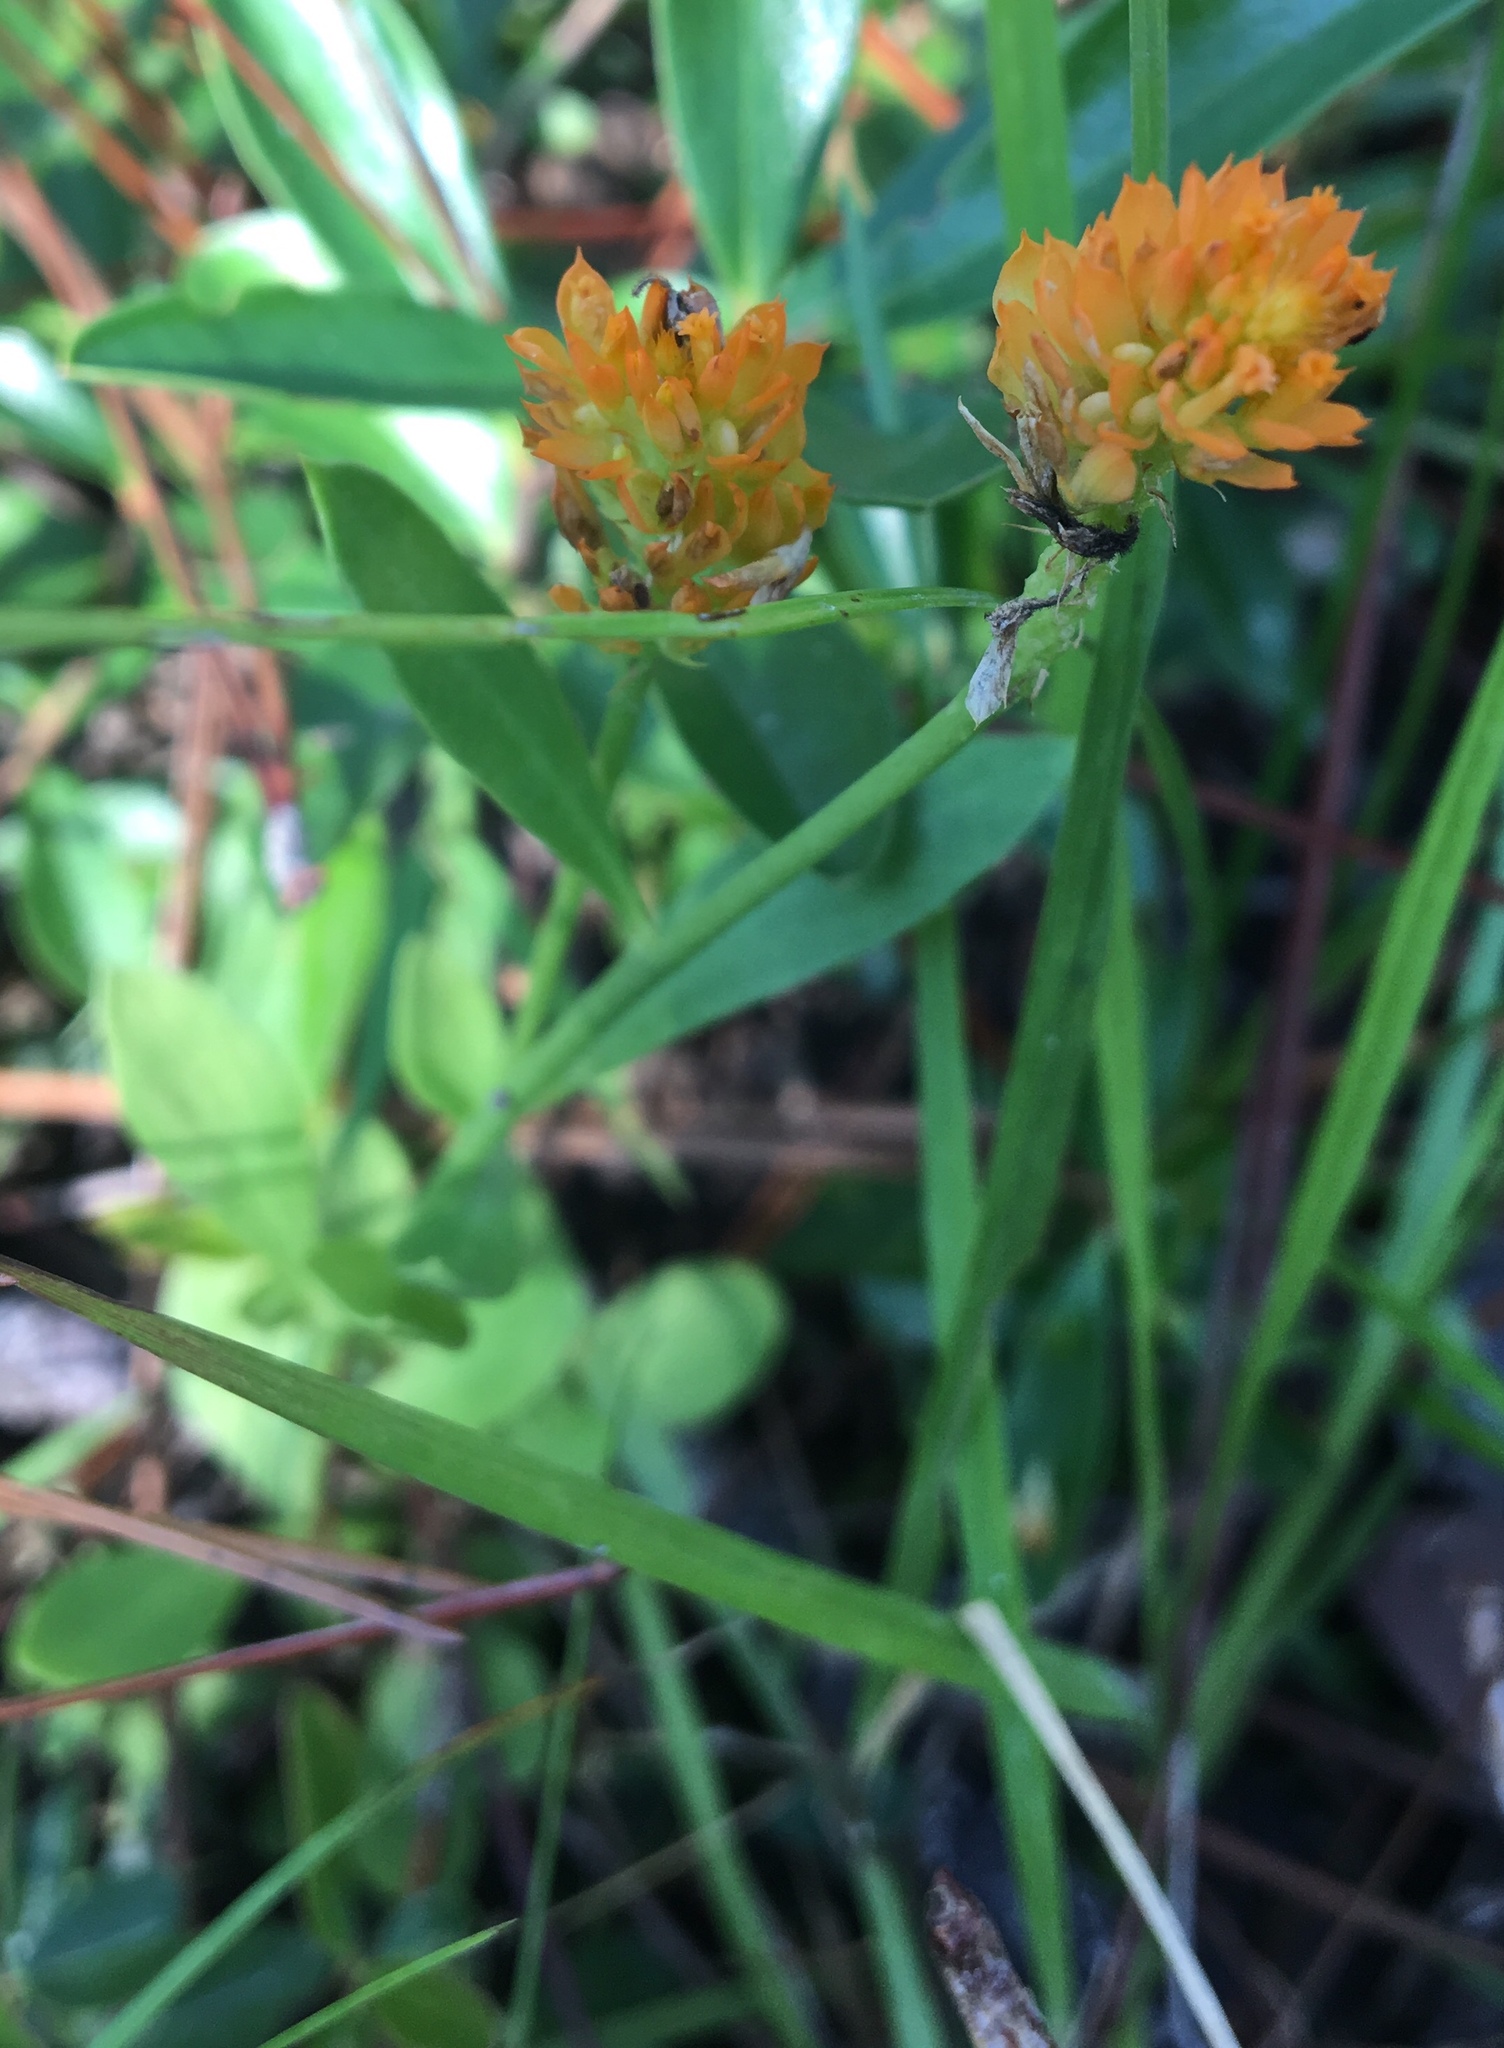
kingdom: Plantae
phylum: Tracheophyta
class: Magnoliopsida
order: Fabales
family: Polygalaceae
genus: Polygala
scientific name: Polygala lutea
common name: Orange milkwort
